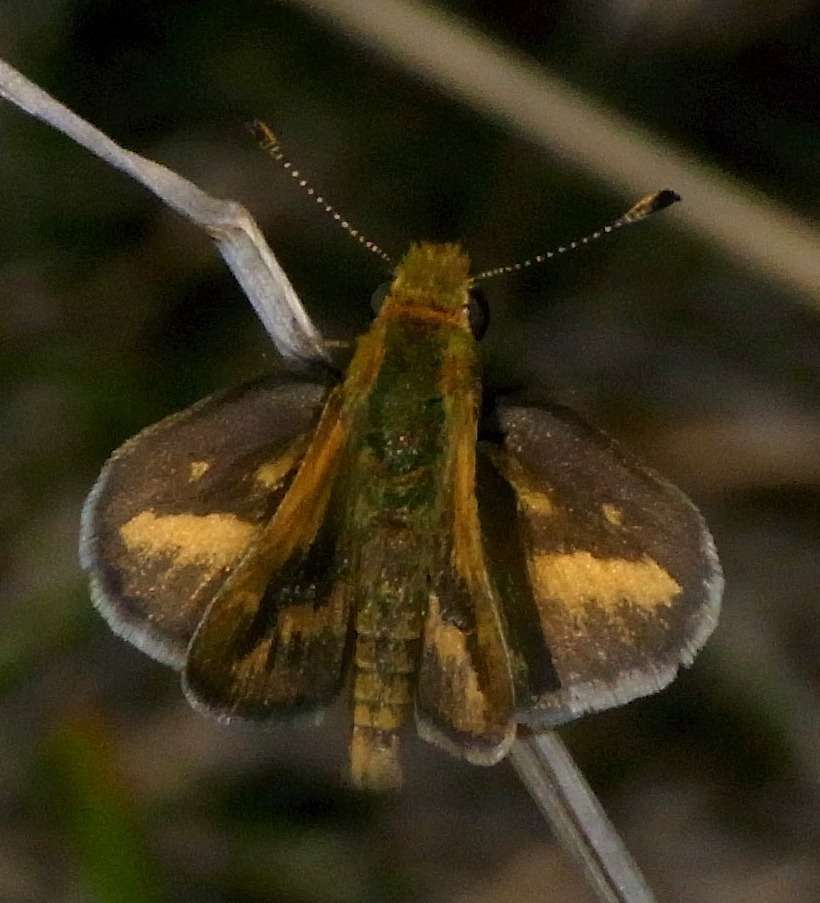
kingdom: Animalia
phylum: Arthropoda
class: Insecta
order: Lepidoptera
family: Hesperiidae
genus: Taractrocera
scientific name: Taractrocera papyria
